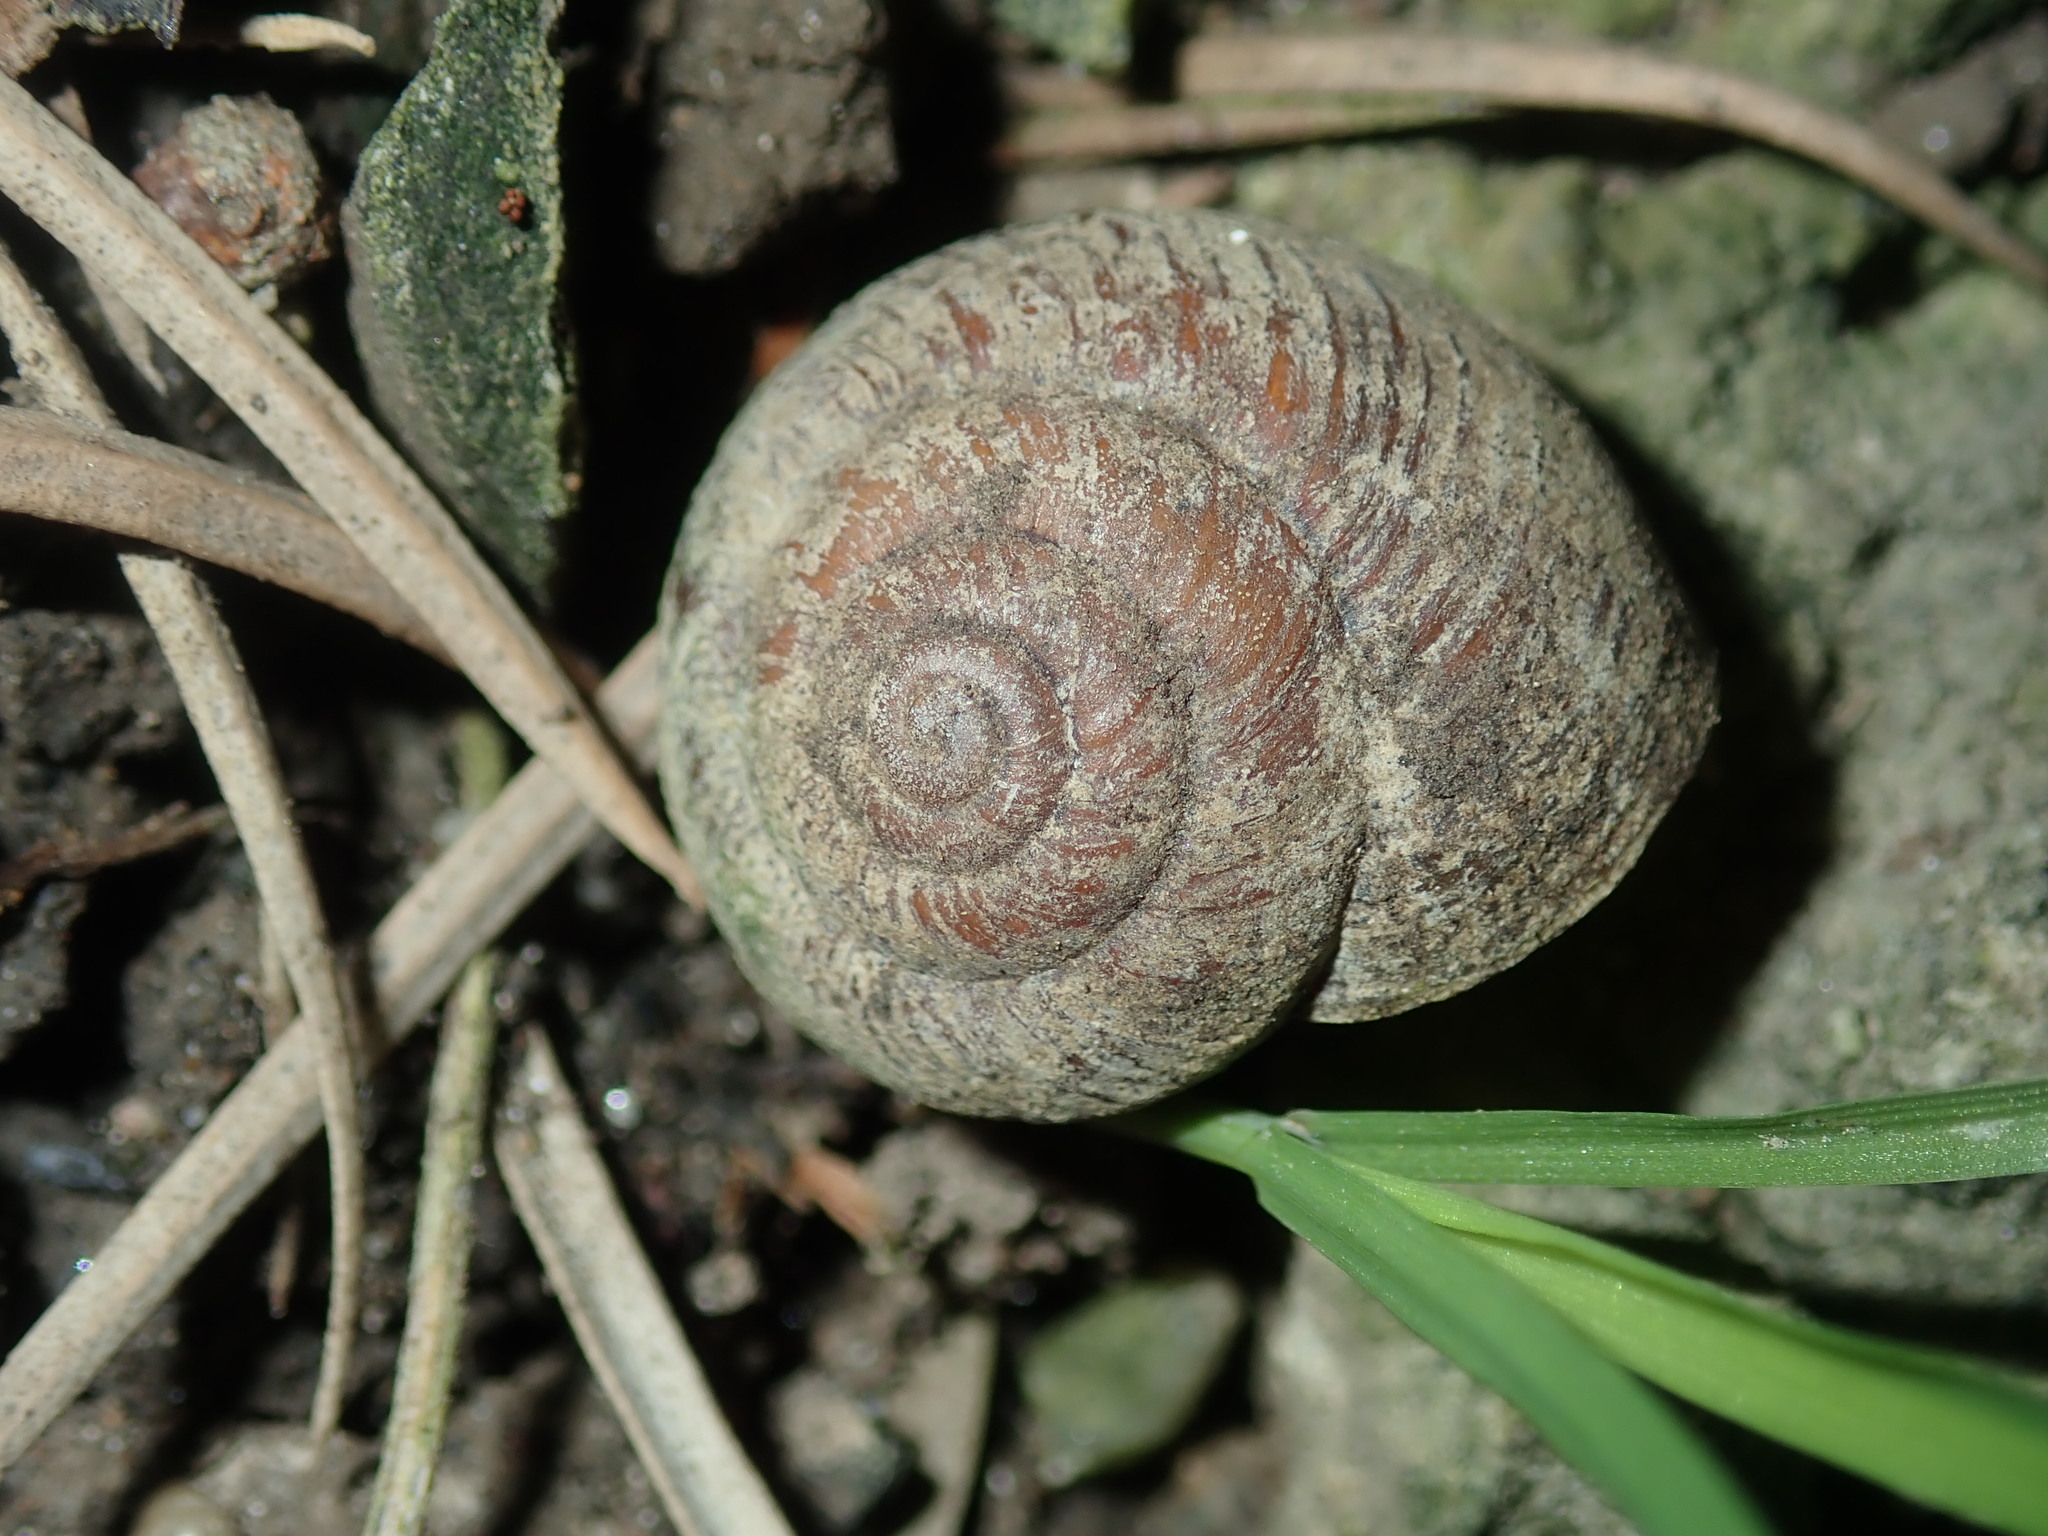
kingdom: Animalia
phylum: Mollusca
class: Gastropoda
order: Stylommatophora
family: Camaenidae
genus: Sauroconcha
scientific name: Sauroconcha sheai
